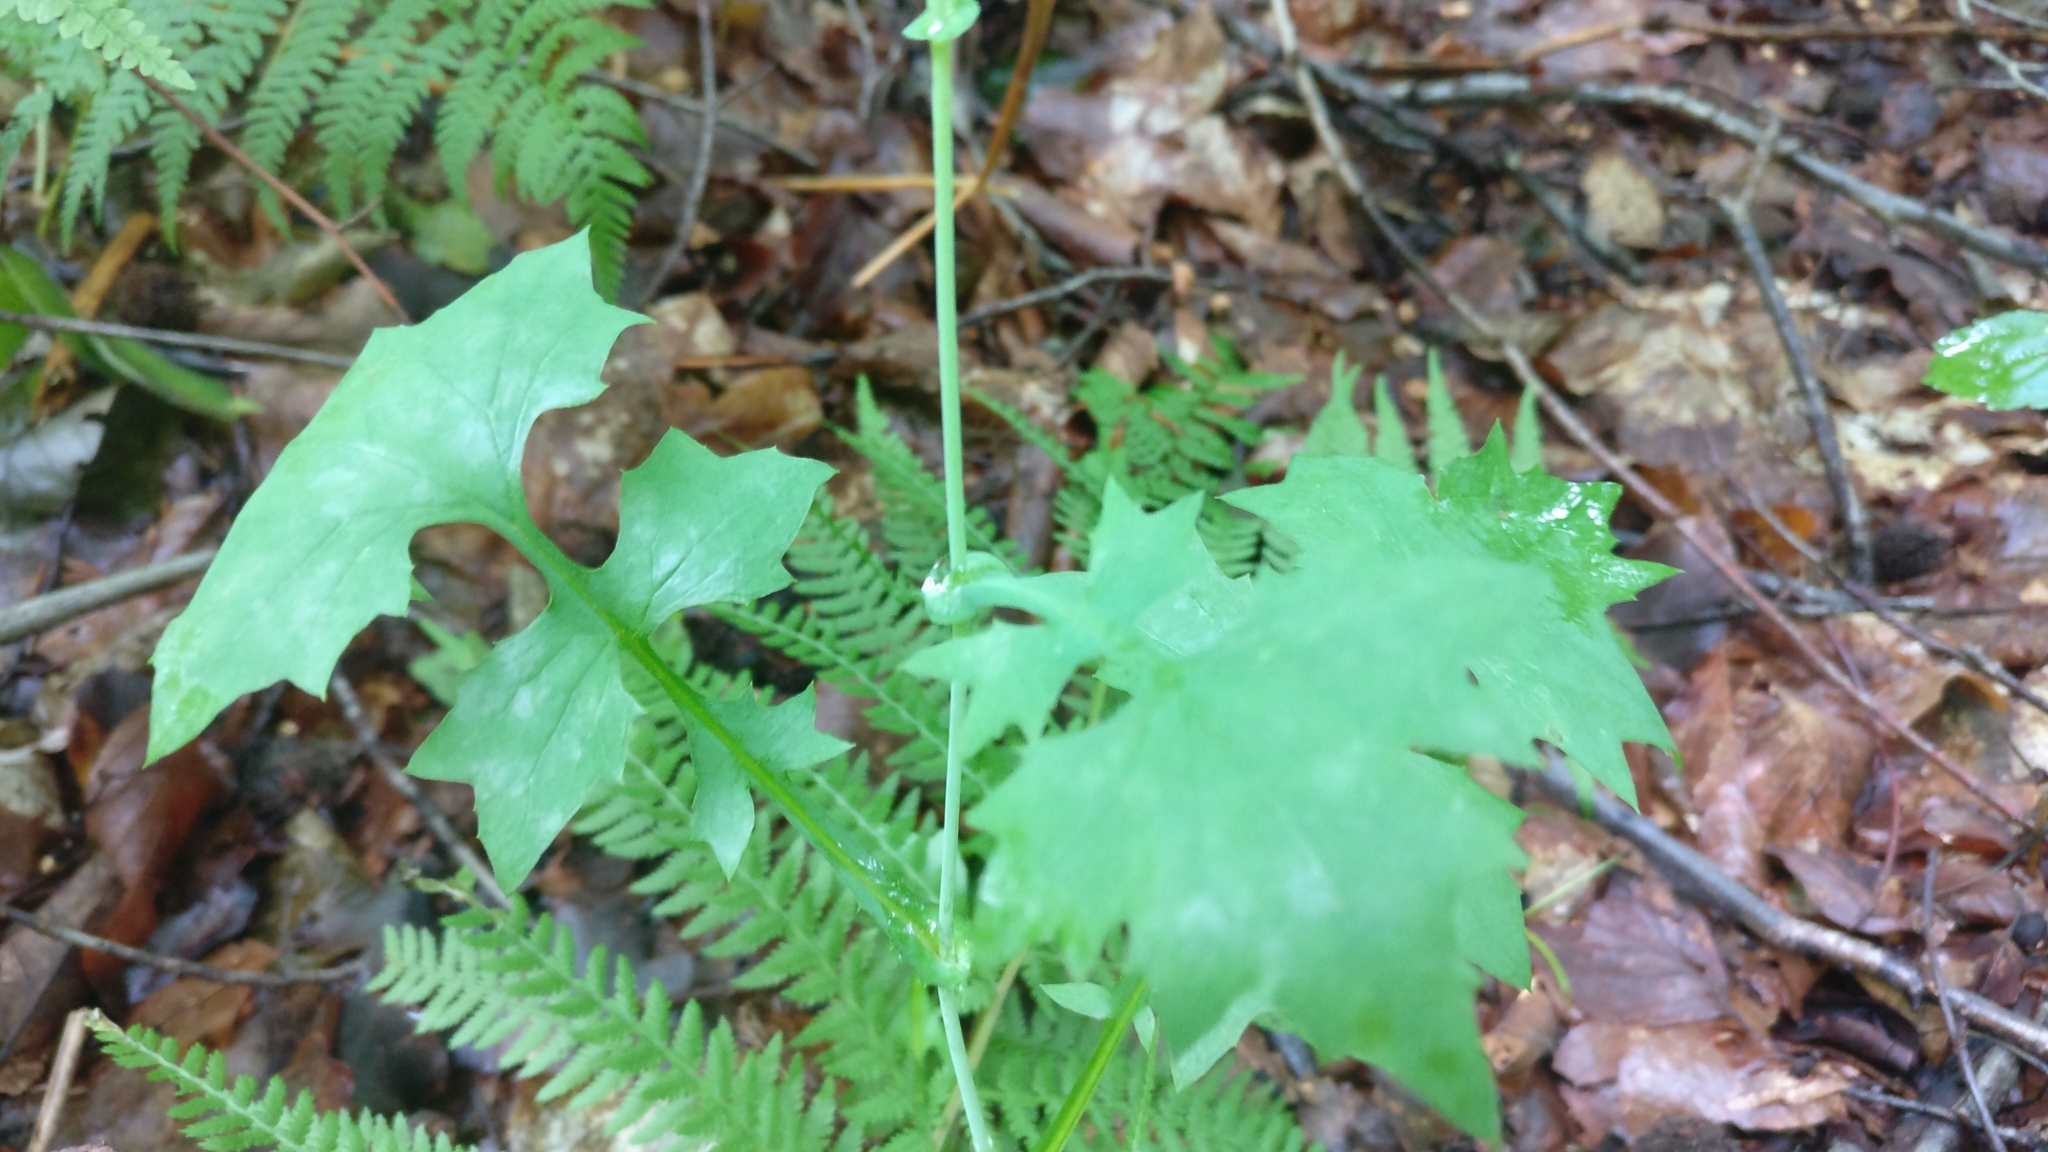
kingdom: Plantae
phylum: Tracheophyta
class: Magnoliopsida
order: Asterales
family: Asteraceae
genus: Mycelis
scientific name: Mycelis muralis
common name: Wall lettuce
